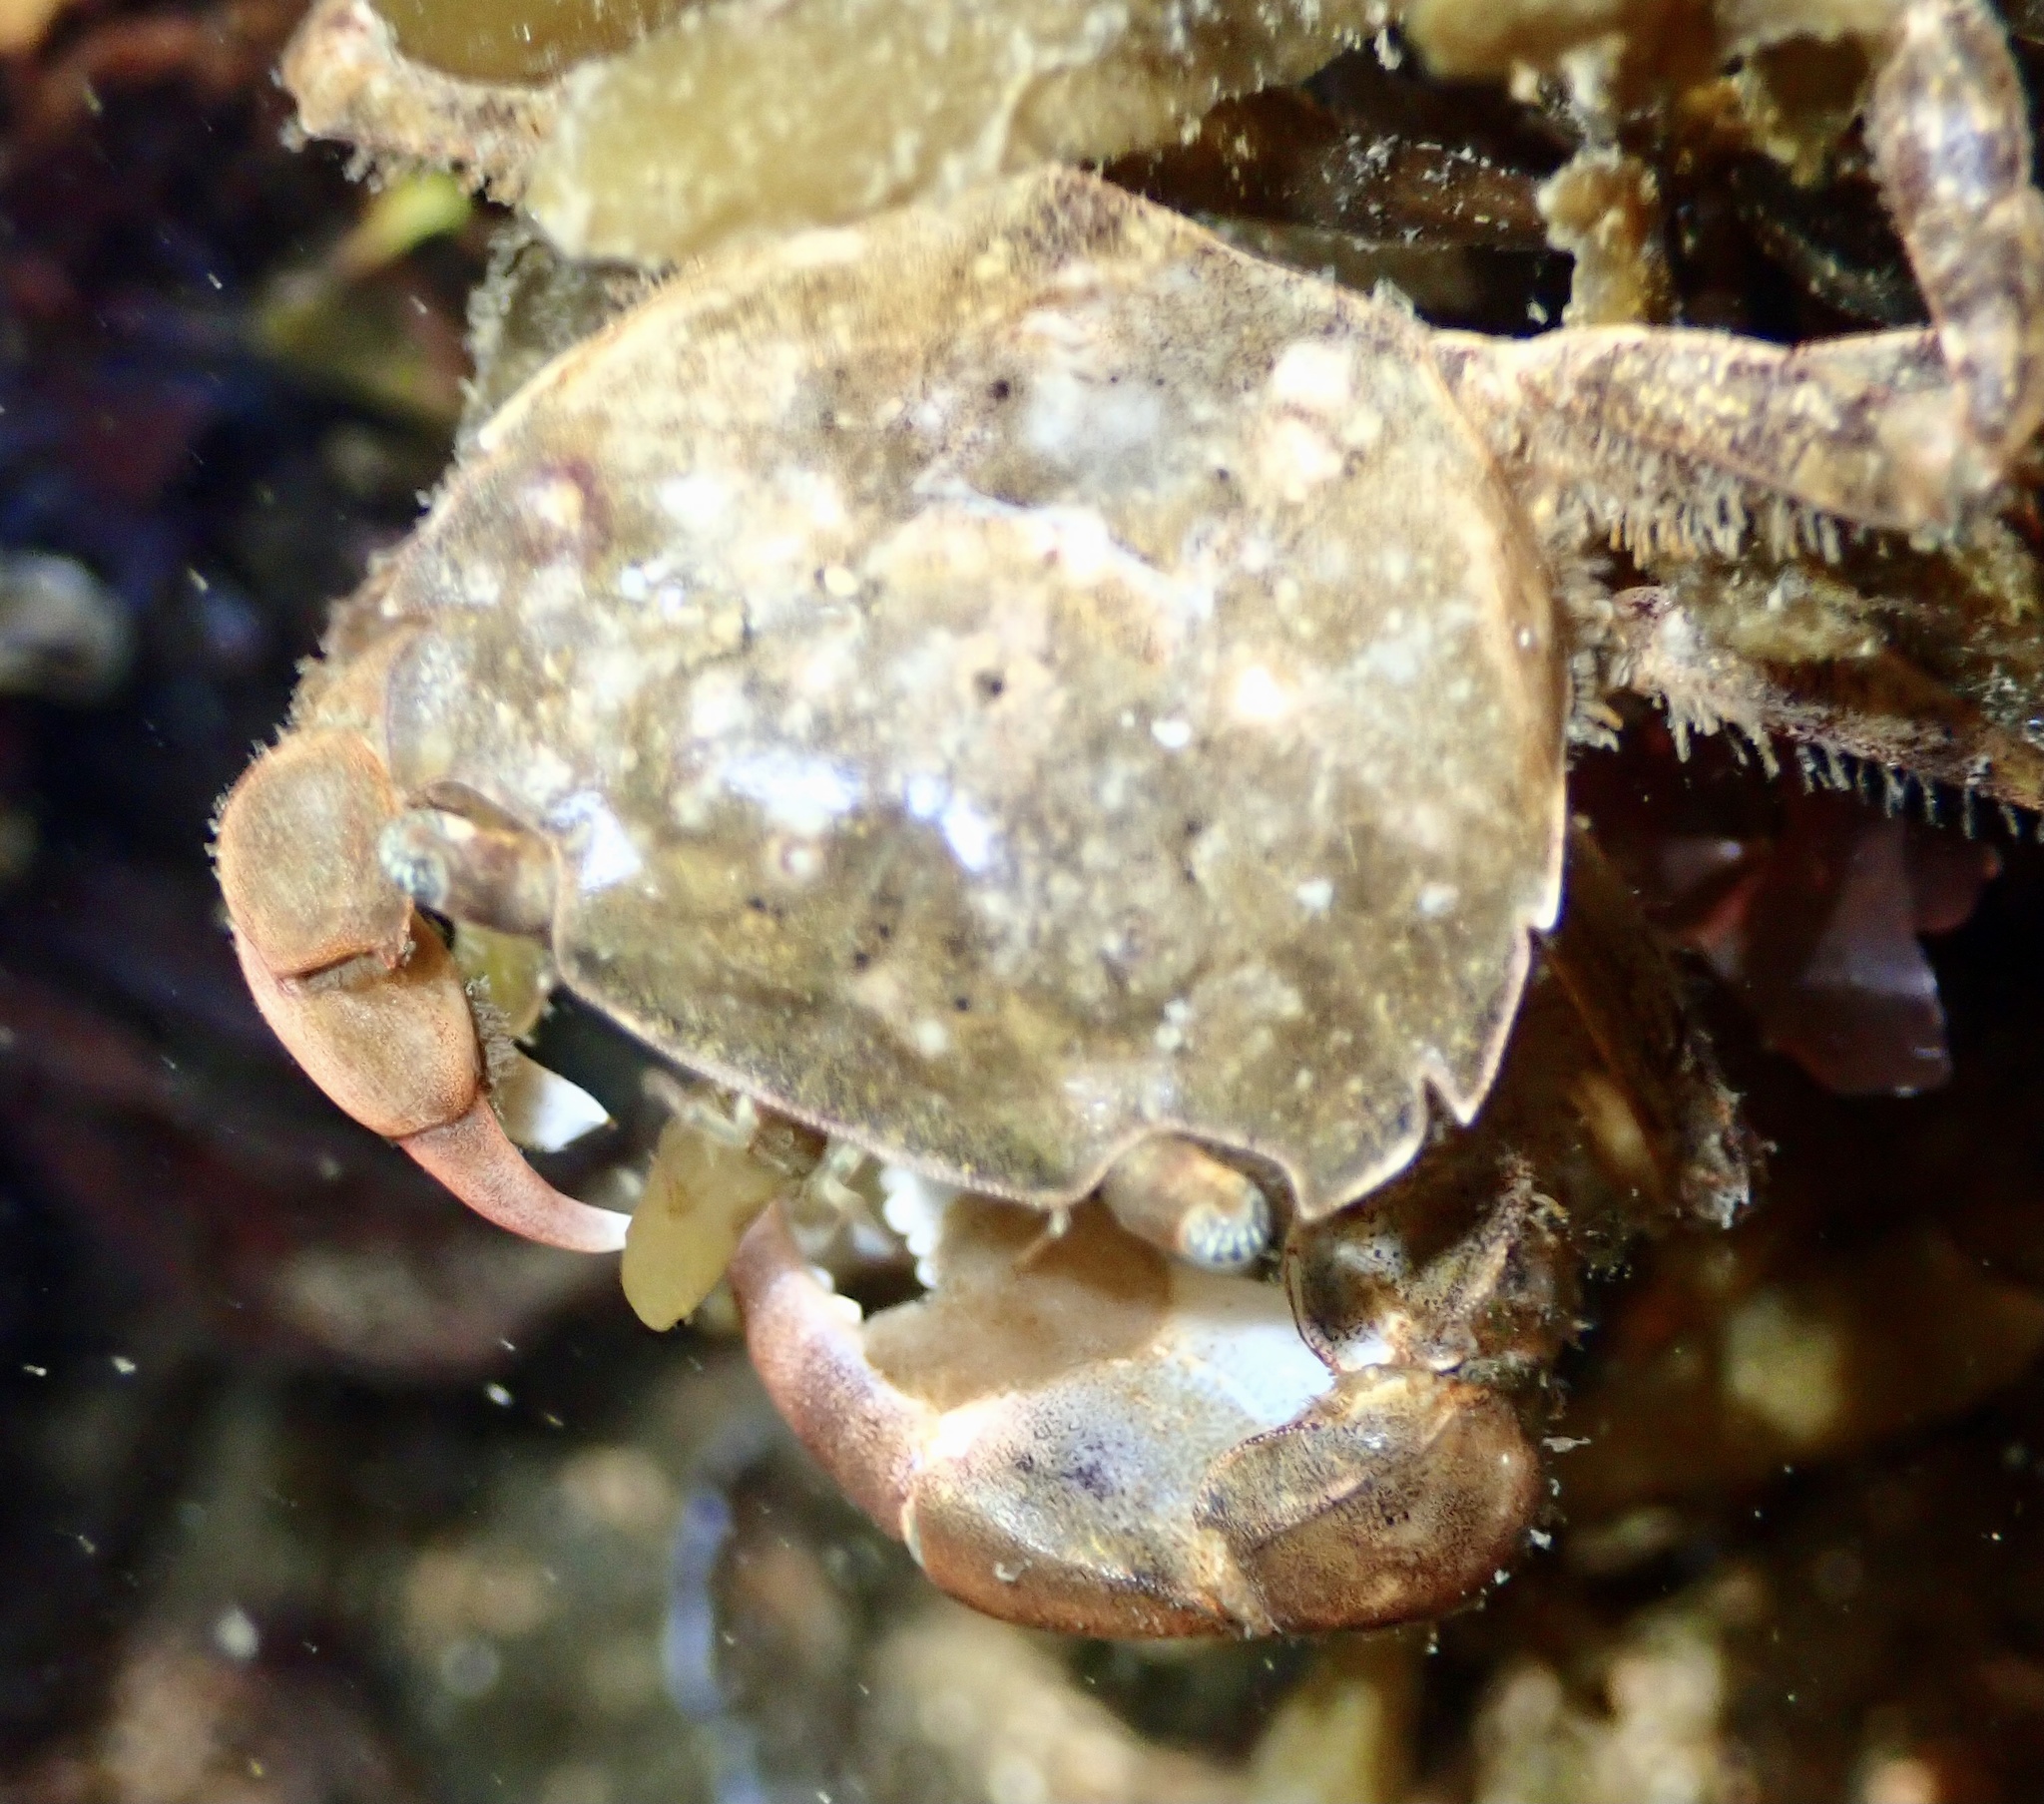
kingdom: Animalia
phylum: Arthropoda
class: Malacostraca
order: Decapoda
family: Varunidae
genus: Hemigrapsus
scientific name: Hemigrapsus takanoi
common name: Asian brush crab
